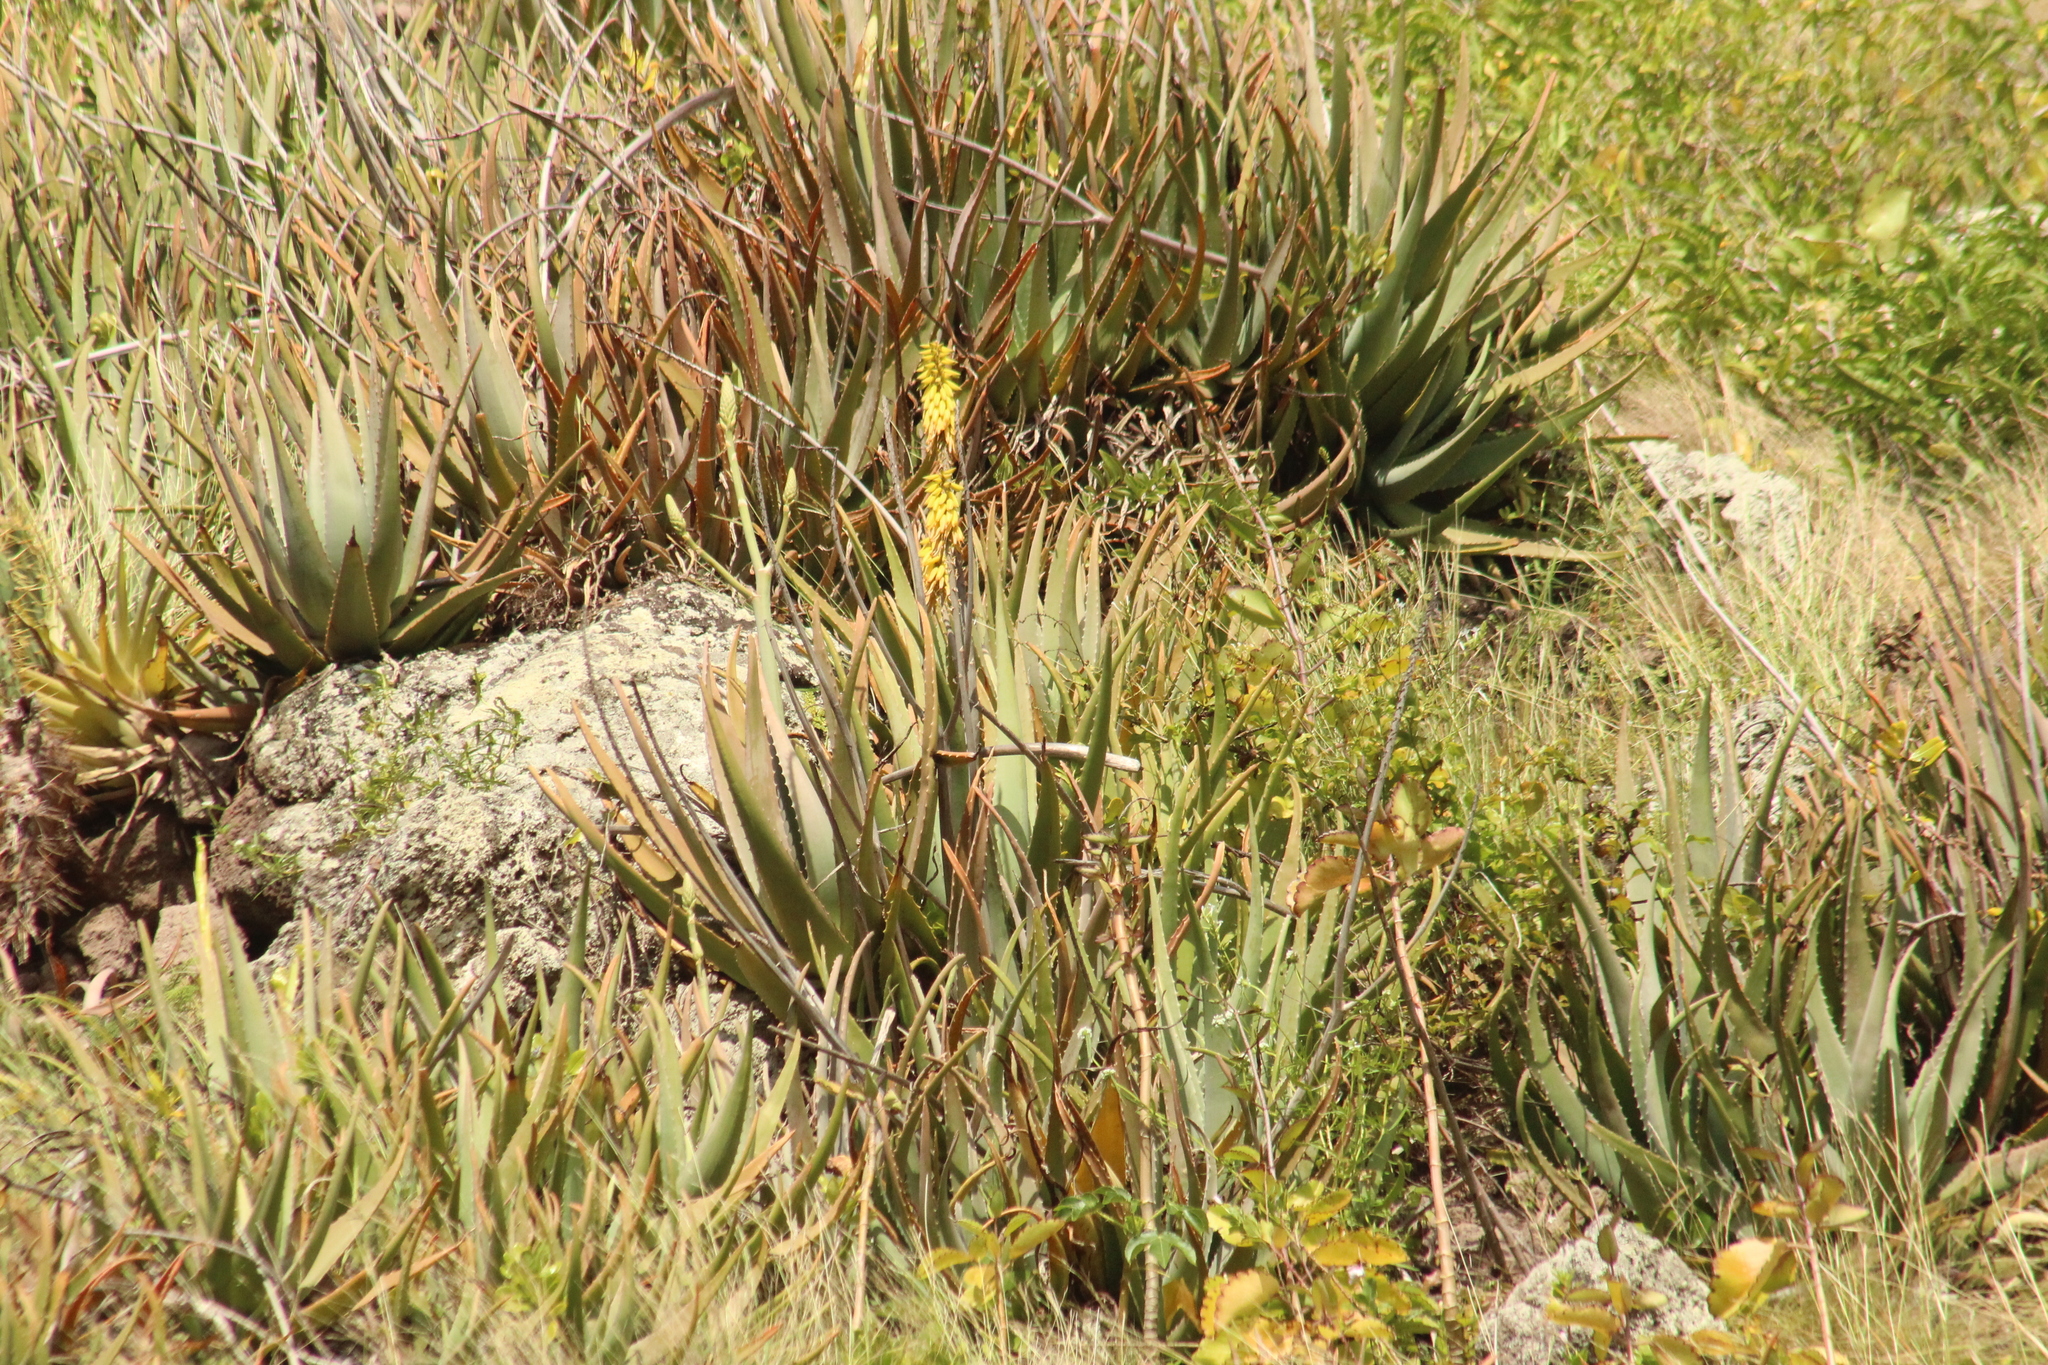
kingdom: Plantae
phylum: Tracheophyta
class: Liliopsida
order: Asparagales
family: Asphodelaceae
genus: Aloe
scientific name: Aloe vera
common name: Barbados aloe
